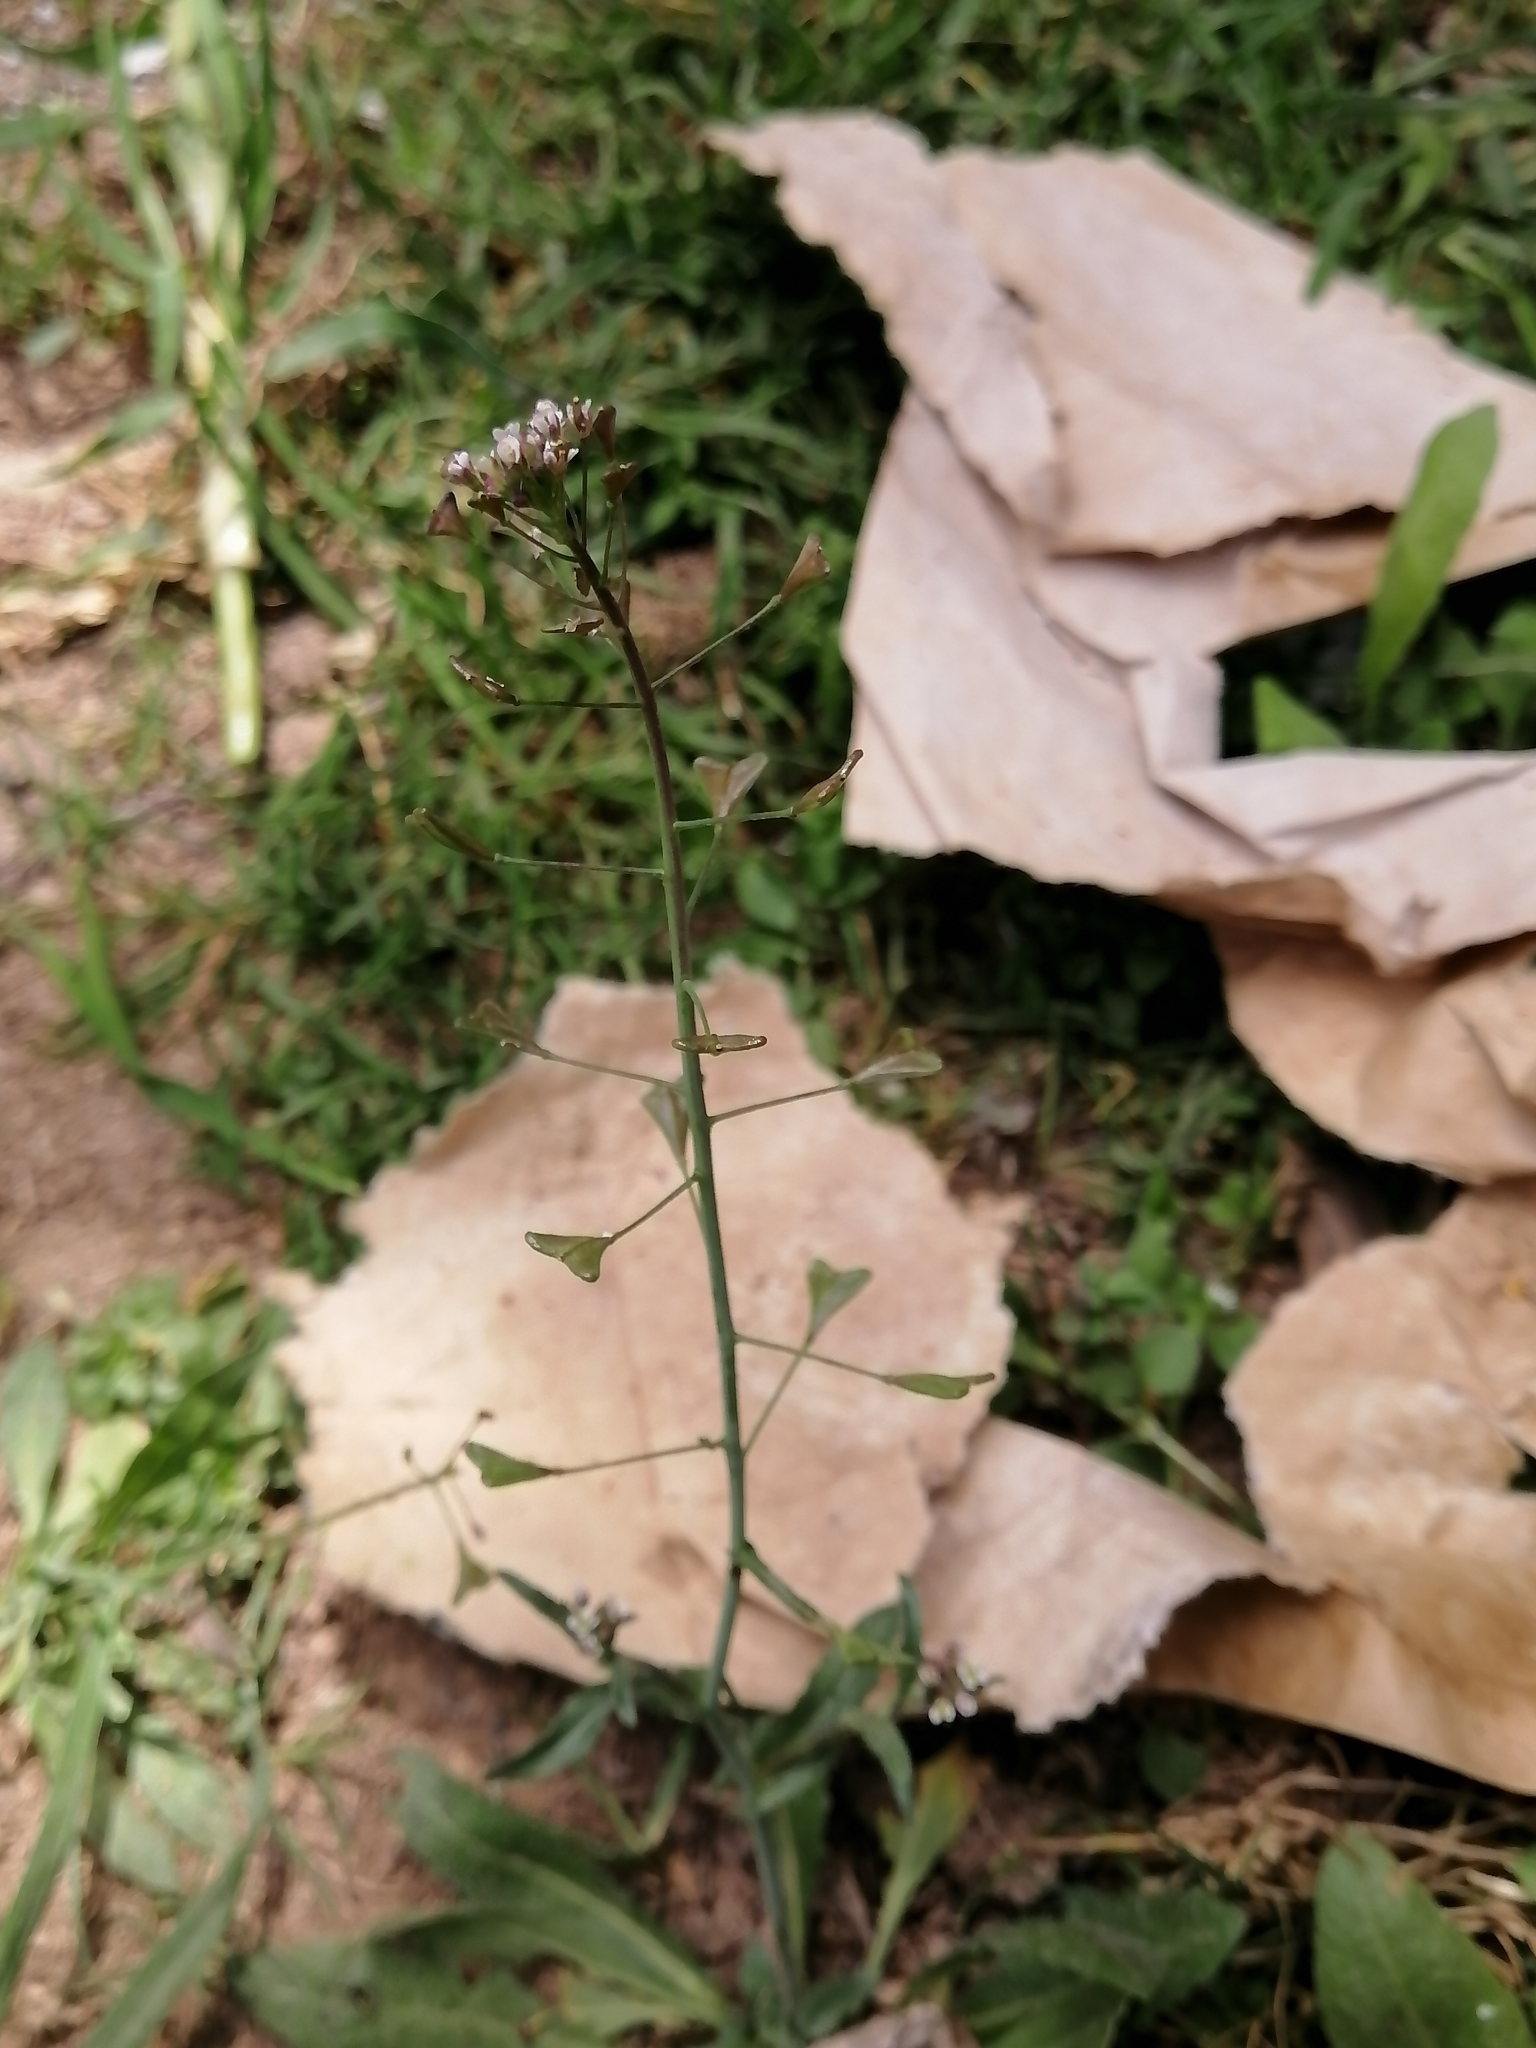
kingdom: Plantae
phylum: Tracheophyta
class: Magnoliopsida
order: Brassicales
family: Brassicaceae
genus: Capsella
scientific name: Capsella bursa-pastoris
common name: Shepherd's purse
